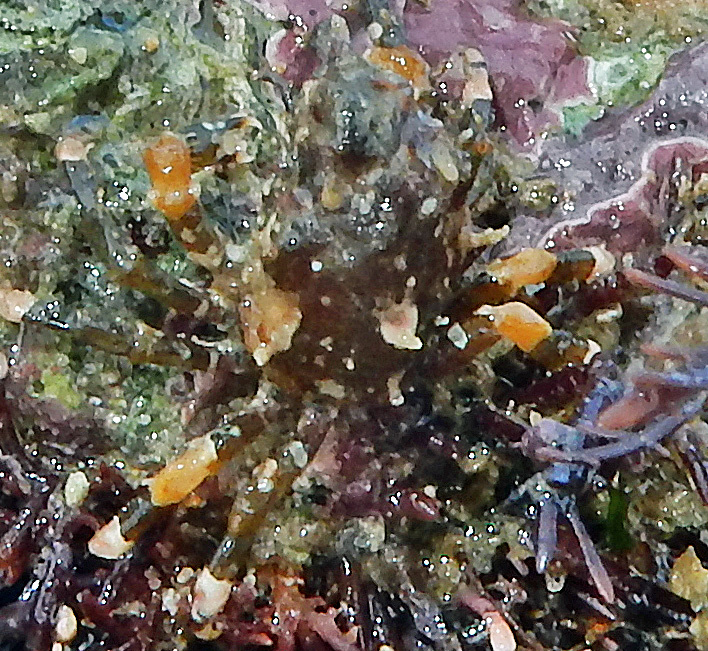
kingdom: Animalia
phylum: Arthropoda
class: Malacostraca
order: Decapoda
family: Epialtidae
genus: Acanthonyx
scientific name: Acanthonyx dentatus
